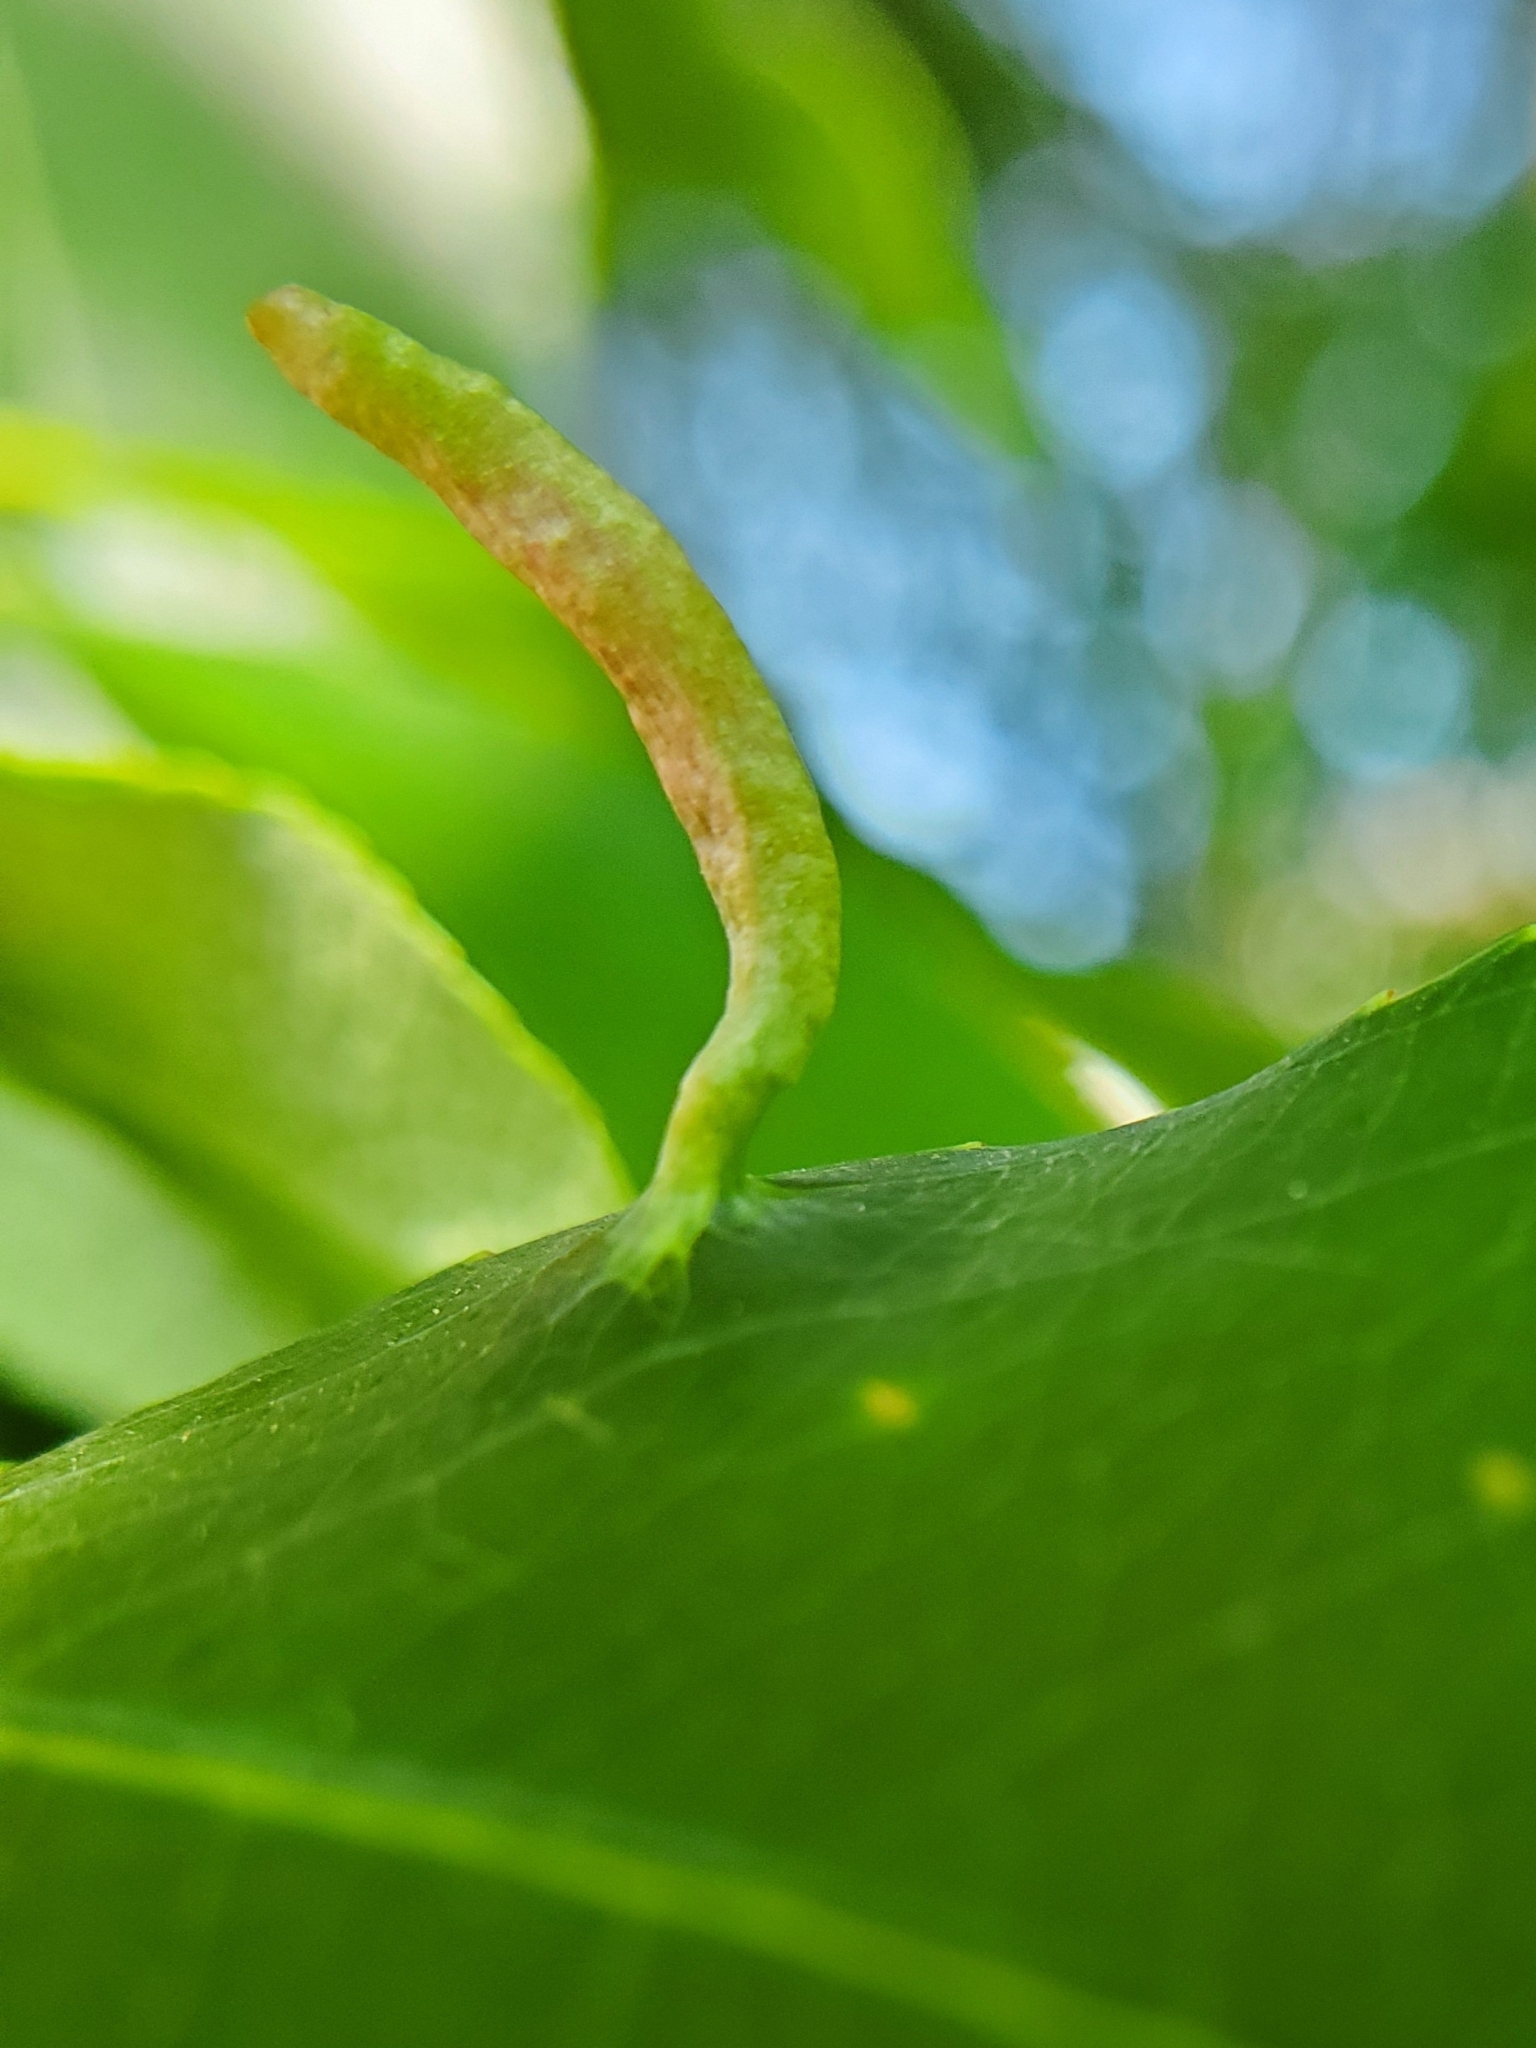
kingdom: Animalia
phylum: Arthropoda
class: Arachnida
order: Trombidiformes
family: Eriophyidae
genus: Eriophyes
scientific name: Eriophyes
